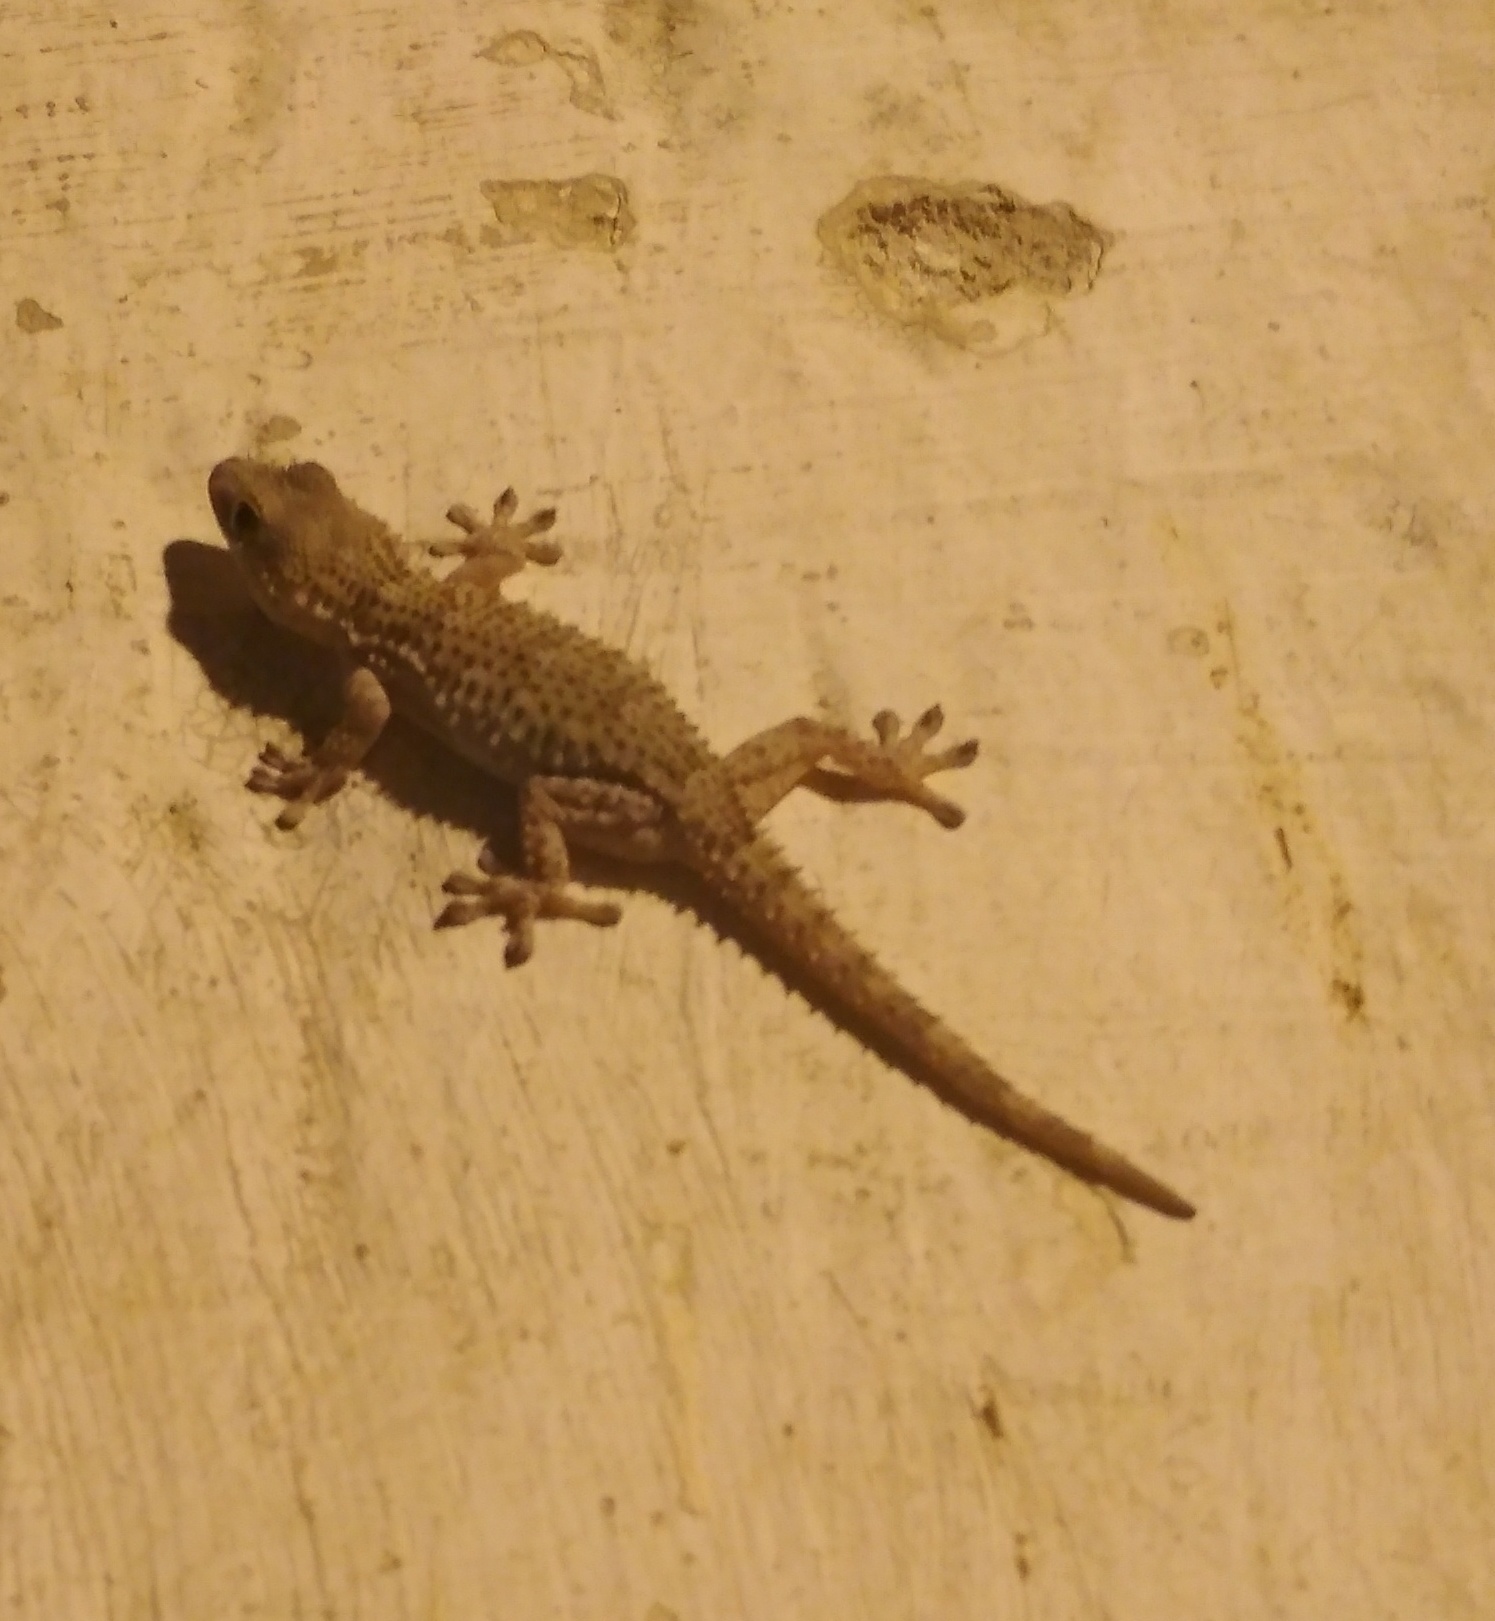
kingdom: Animalia
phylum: Chordata
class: Squamata
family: Phyllodactylidae
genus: Tarentola
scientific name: Tarentola mauritanica
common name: Moorish gecko
